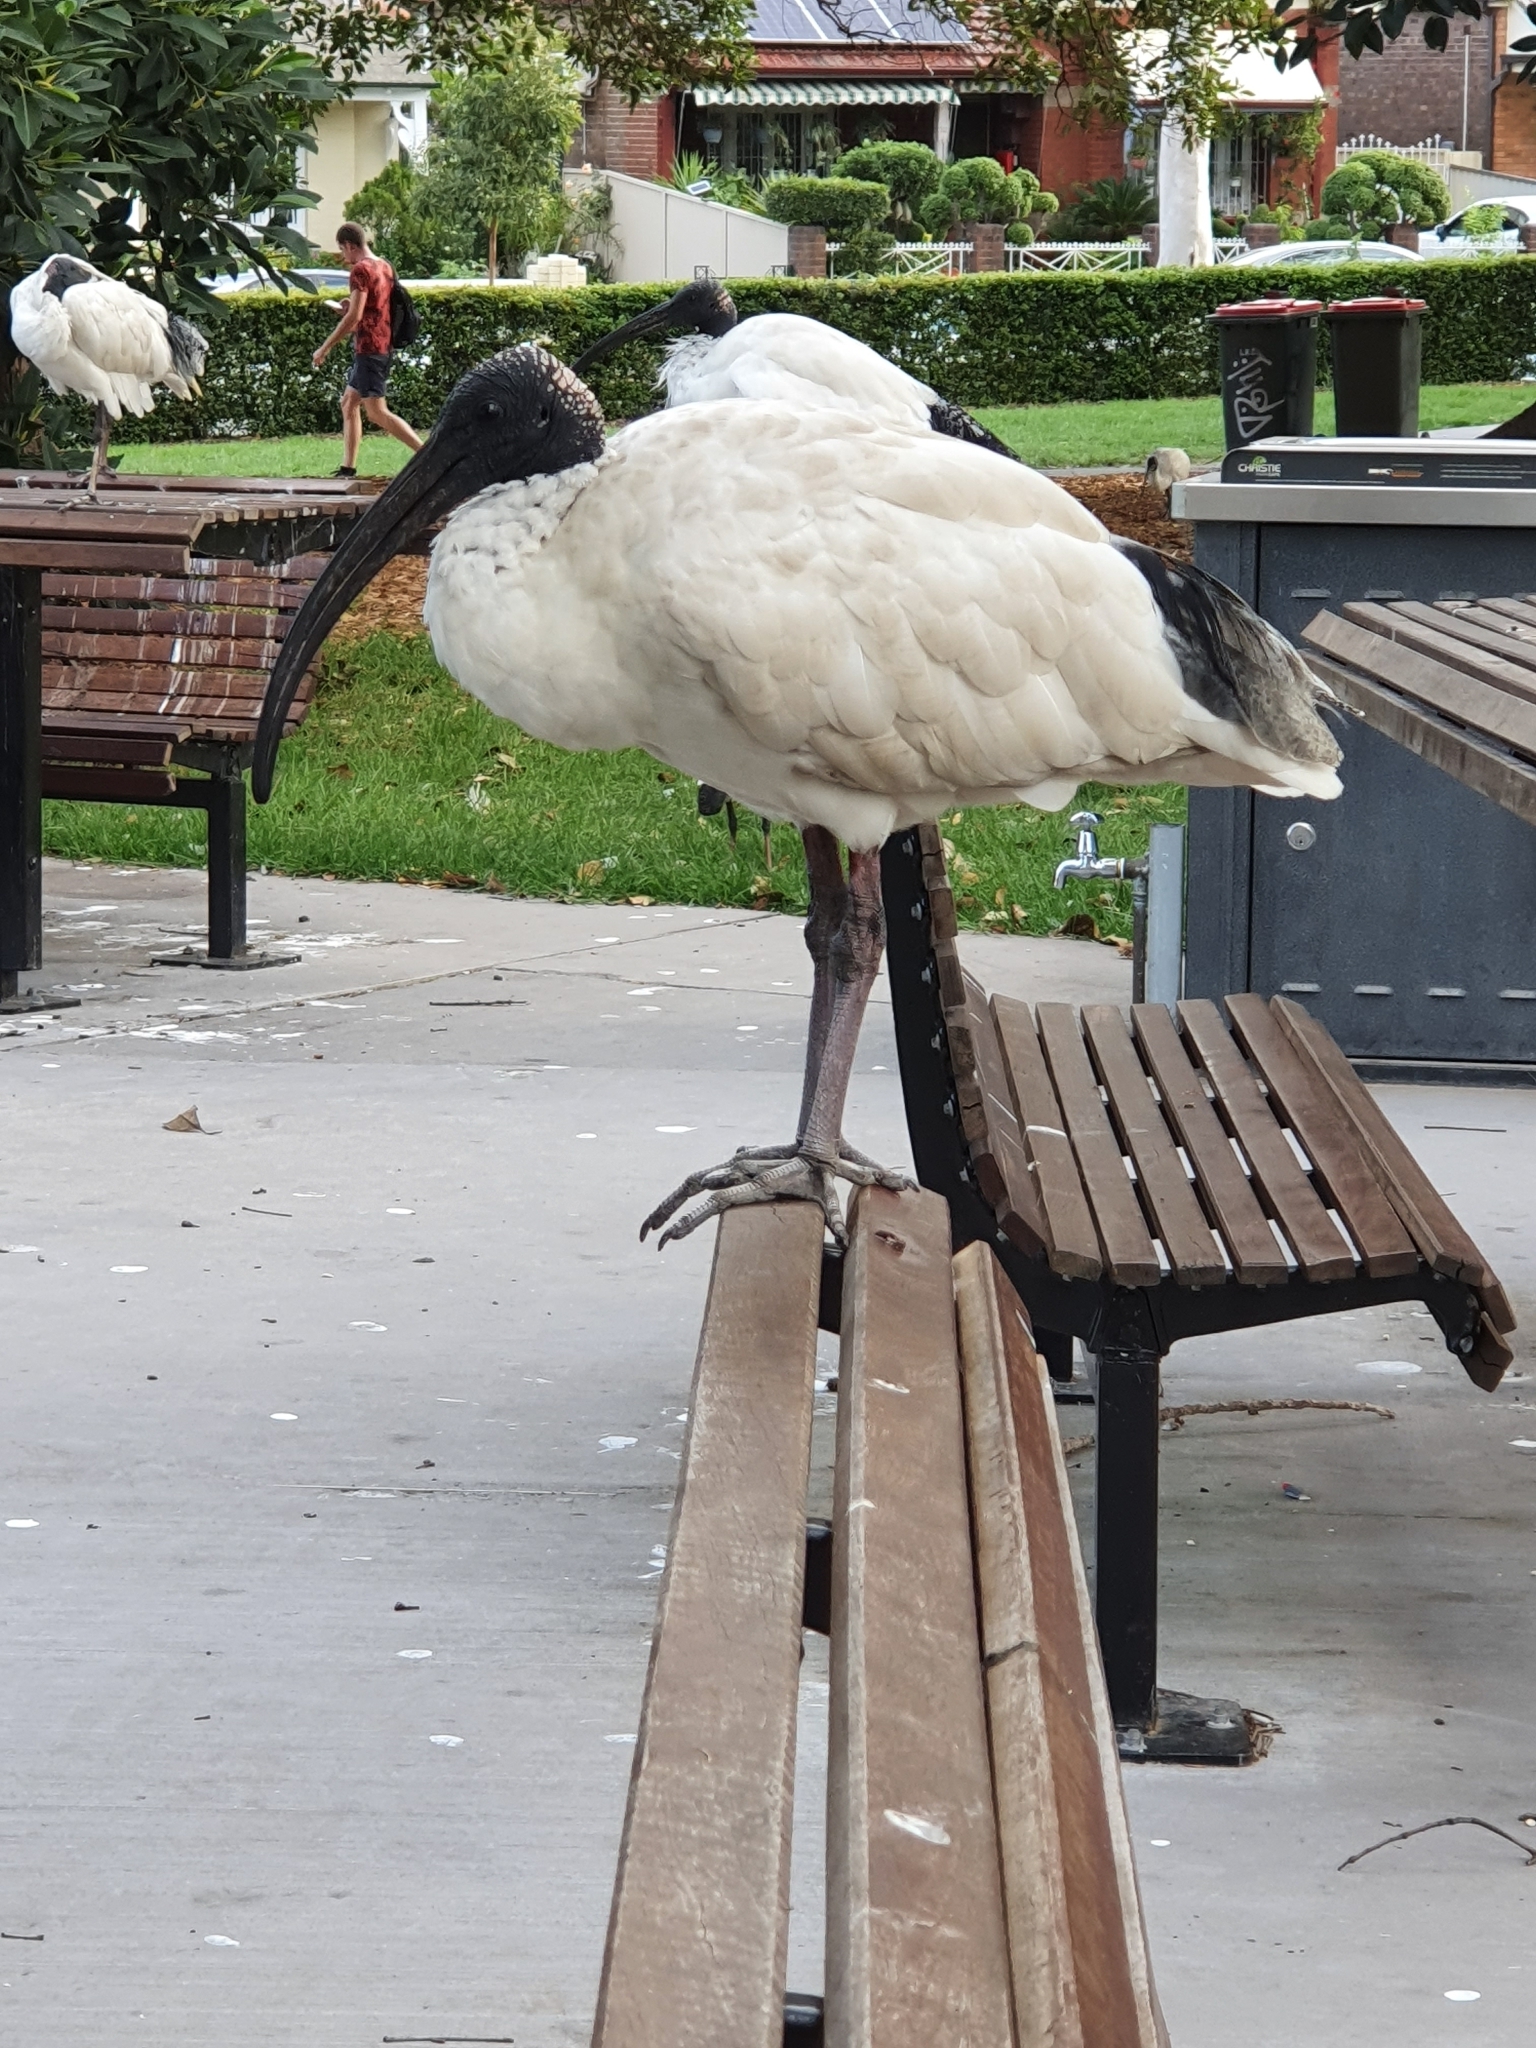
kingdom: Animalia
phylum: Chordata
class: Aves
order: Pelecaniformes
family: Threskiornithidae
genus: Threskiornis
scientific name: Threskiornis molucca
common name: Australian white ibis
